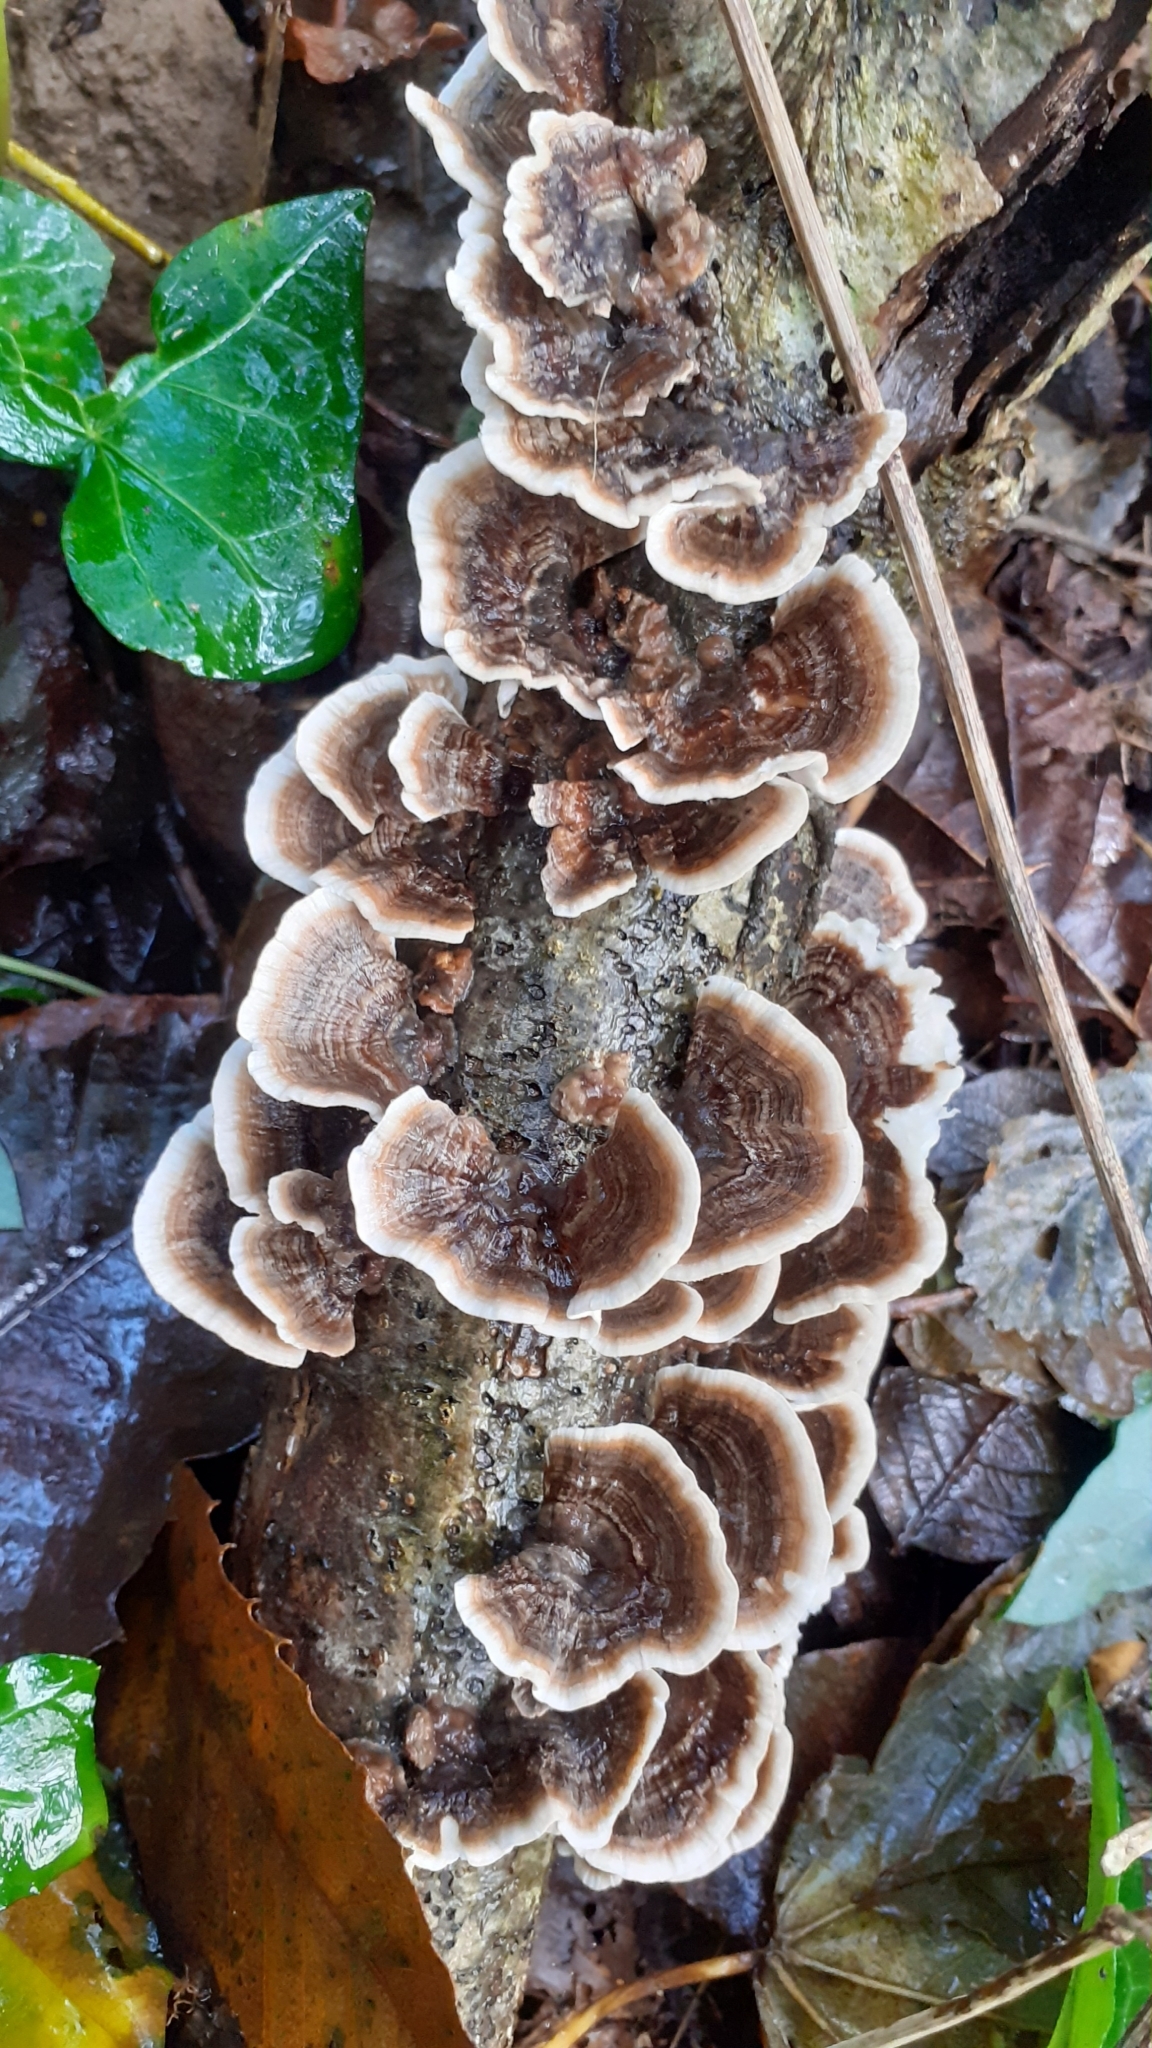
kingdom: Fungi
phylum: Basidiomycota
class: Agaricomycetes
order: Polyporales
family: Polyporaceae
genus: Trametes
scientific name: Trametes versicolor
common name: Turkeytail
